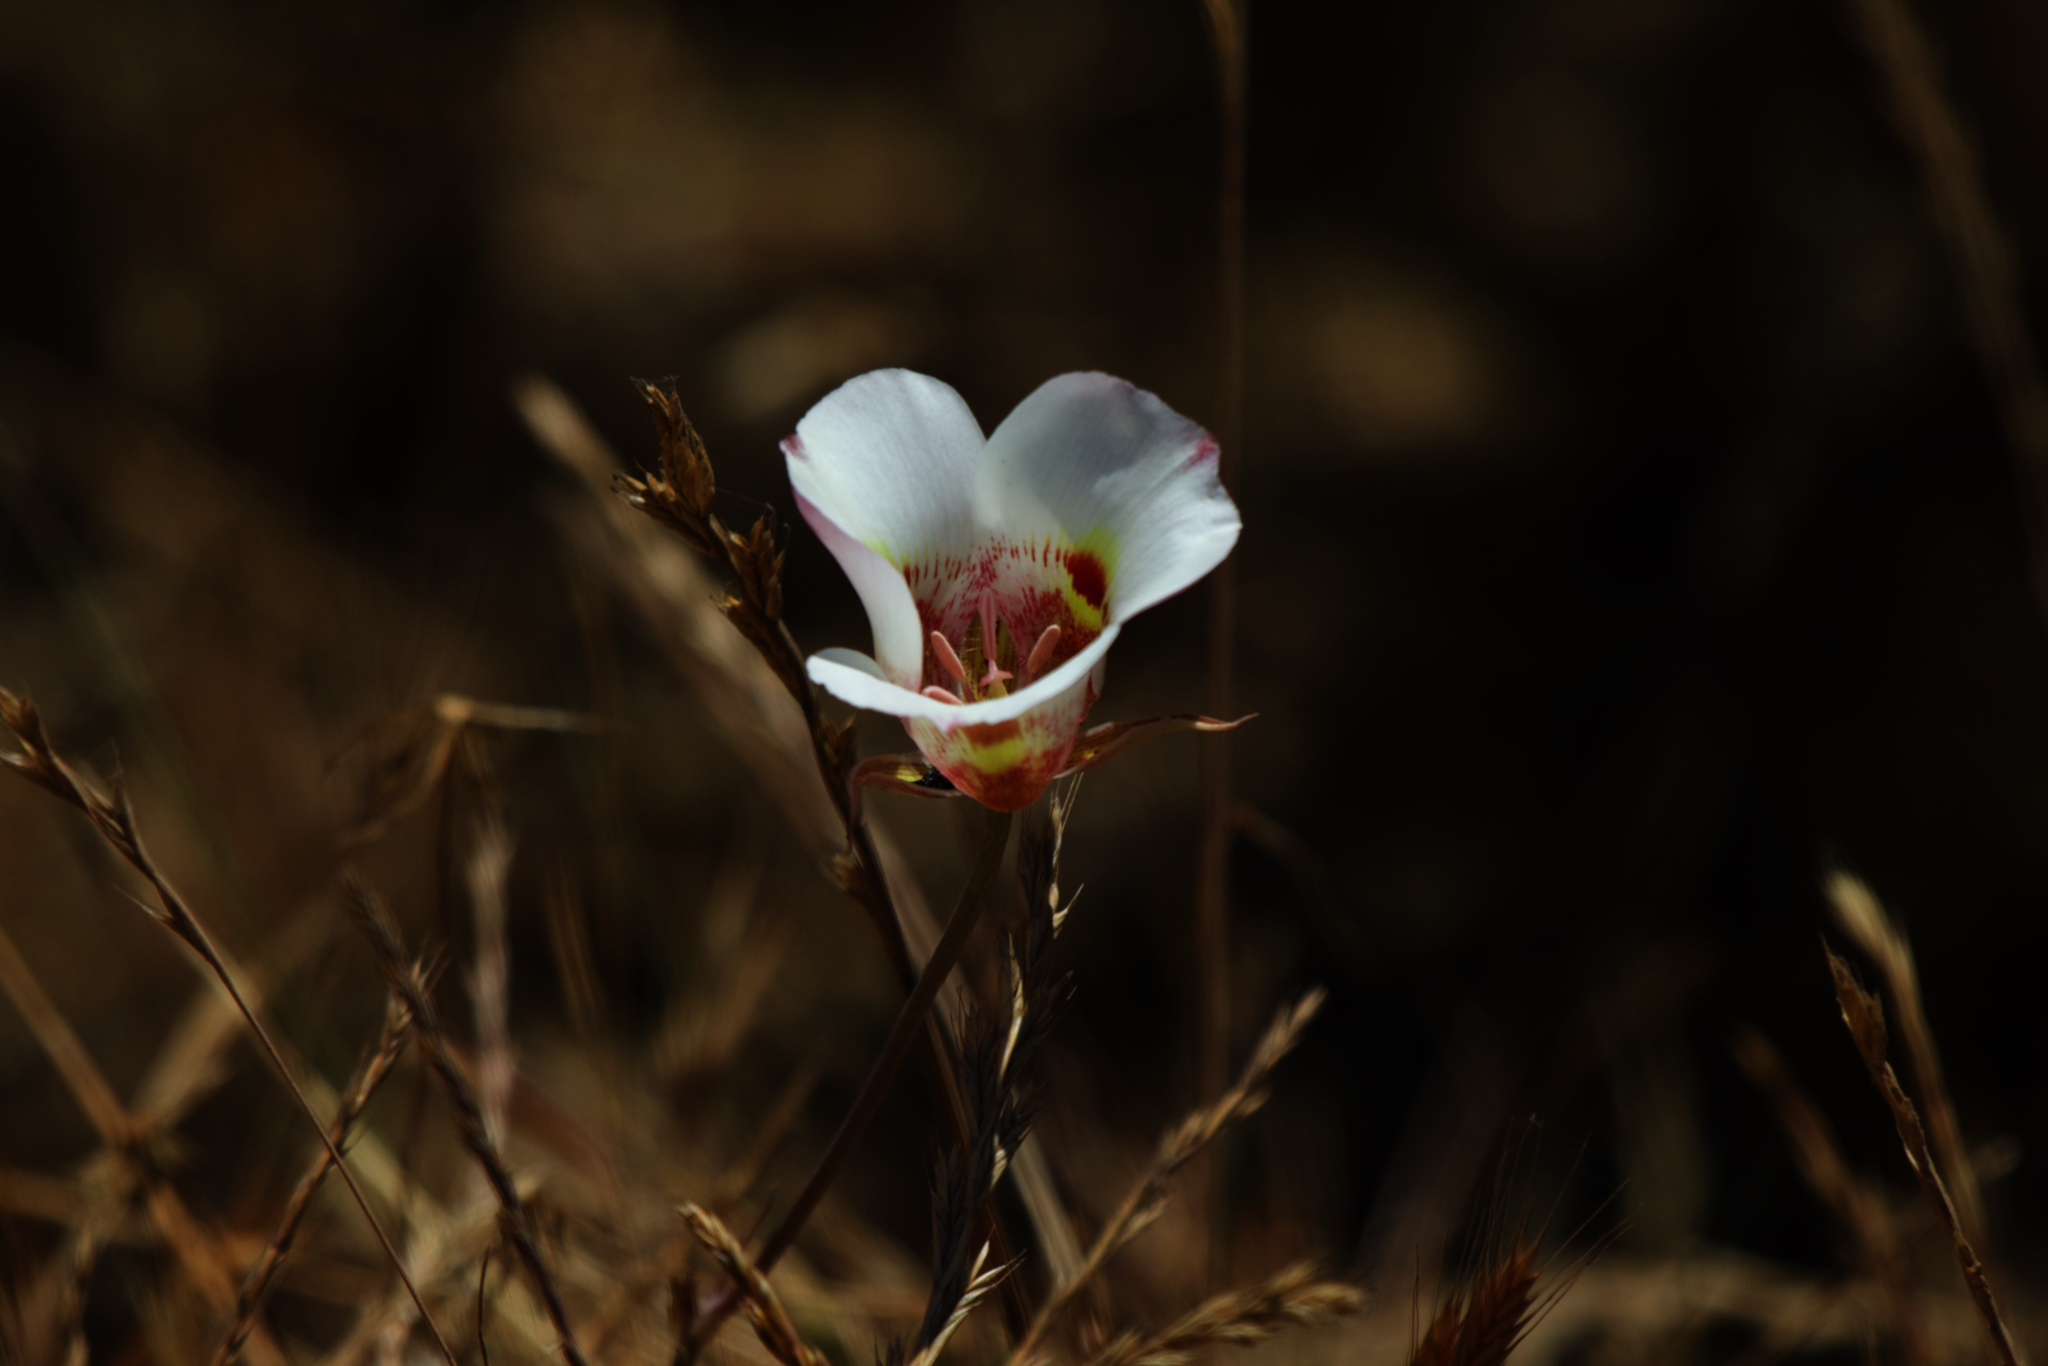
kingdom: Plantae
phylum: Tracheophyta
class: Liliopsida
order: Liliales
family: Liliaceae
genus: Calochortus
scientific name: Calochortus argillosus
